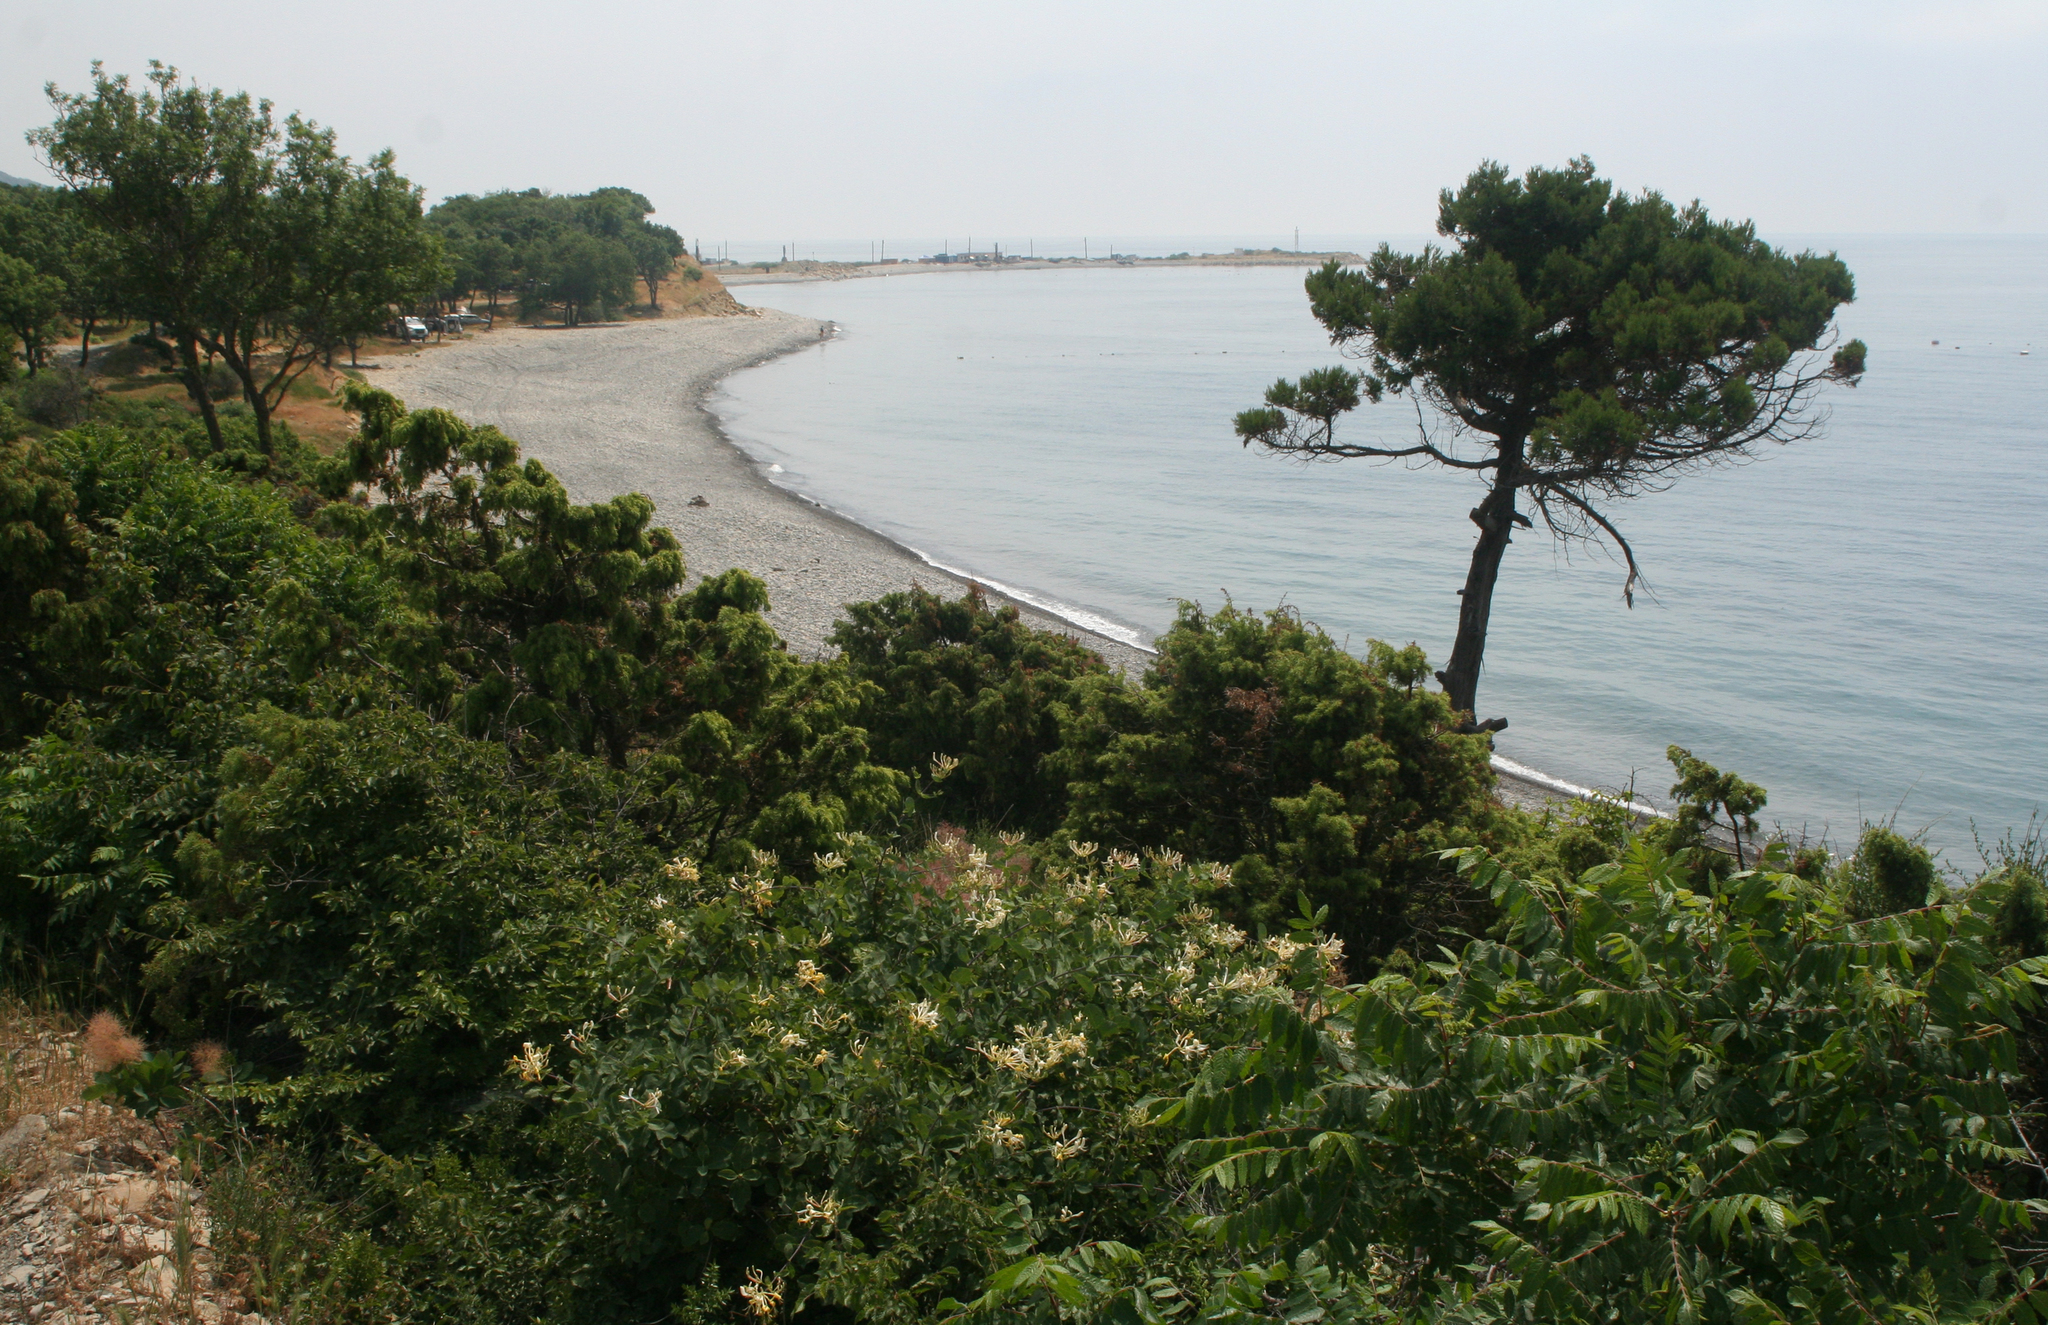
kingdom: Plantae
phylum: Tracheophyta
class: Magnoliopsida
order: Dipsacales
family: Caprifoliaceae
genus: Lonicera
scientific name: Lonicera caprifolium
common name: Perfoliate honeysuckle
